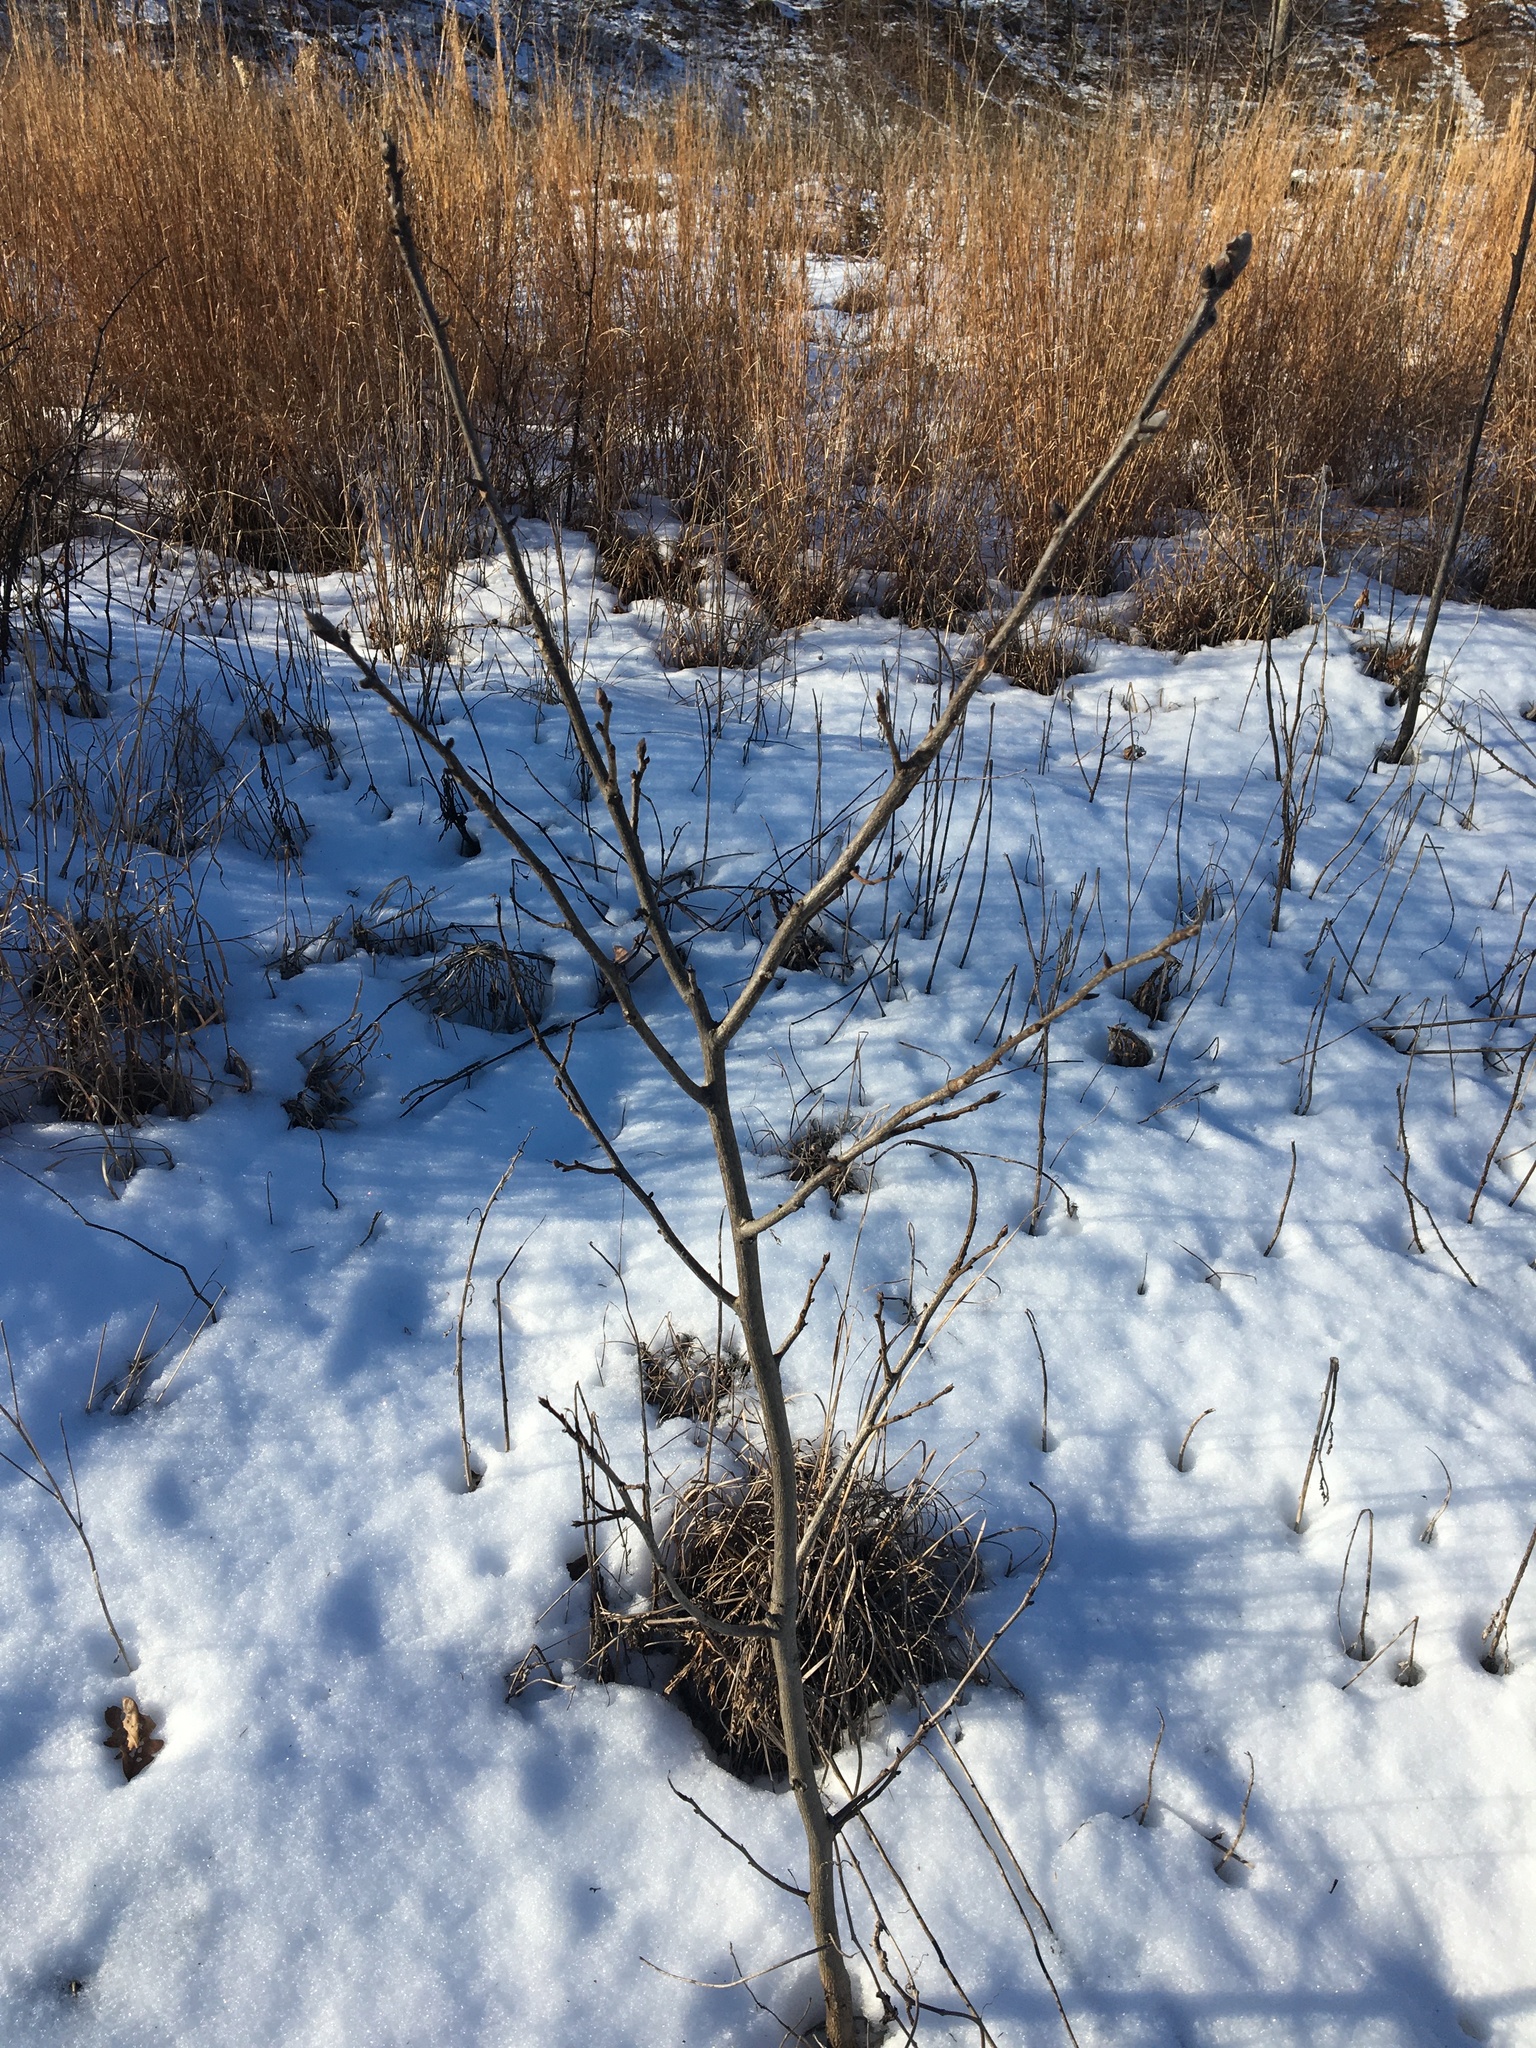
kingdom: Plantae
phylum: Tracheophyta
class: Magnoliopsida
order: Fagales
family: Juglandaceae
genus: Carya
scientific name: Carya ovata
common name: Shagbark hickory
